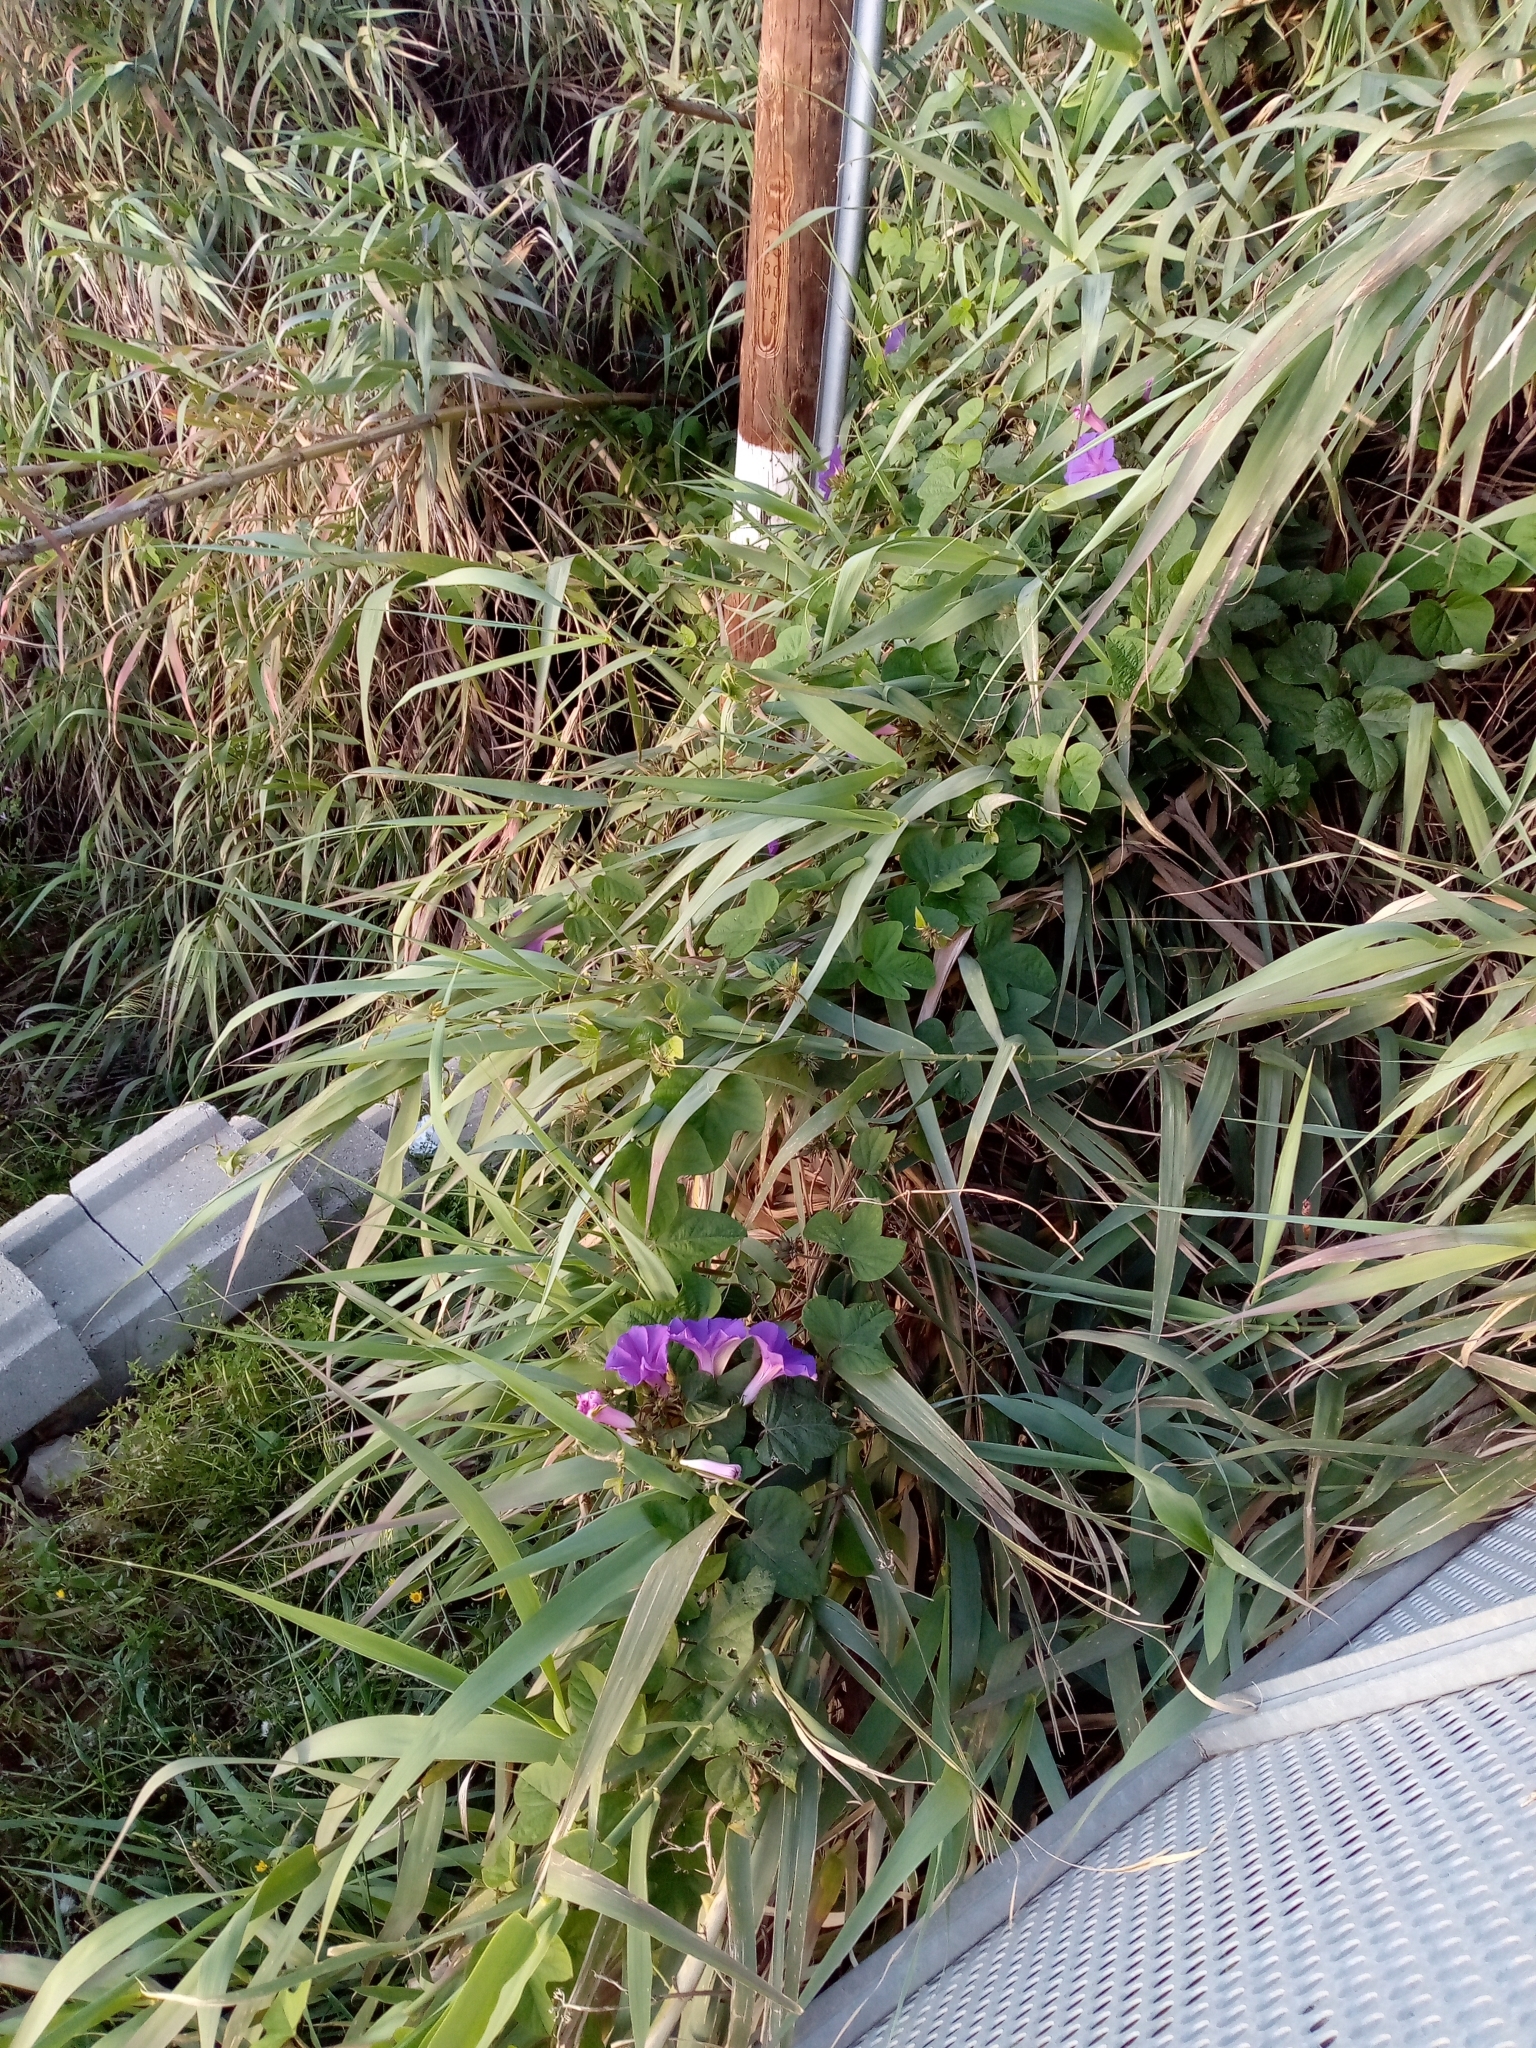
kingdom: Plantae
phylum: Tracheophyta
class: Magnoliopsida
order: Solanales
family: Convolvulaceae
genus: Ipomoea
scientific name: Ipomoea indica
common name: Blue dawnflower
